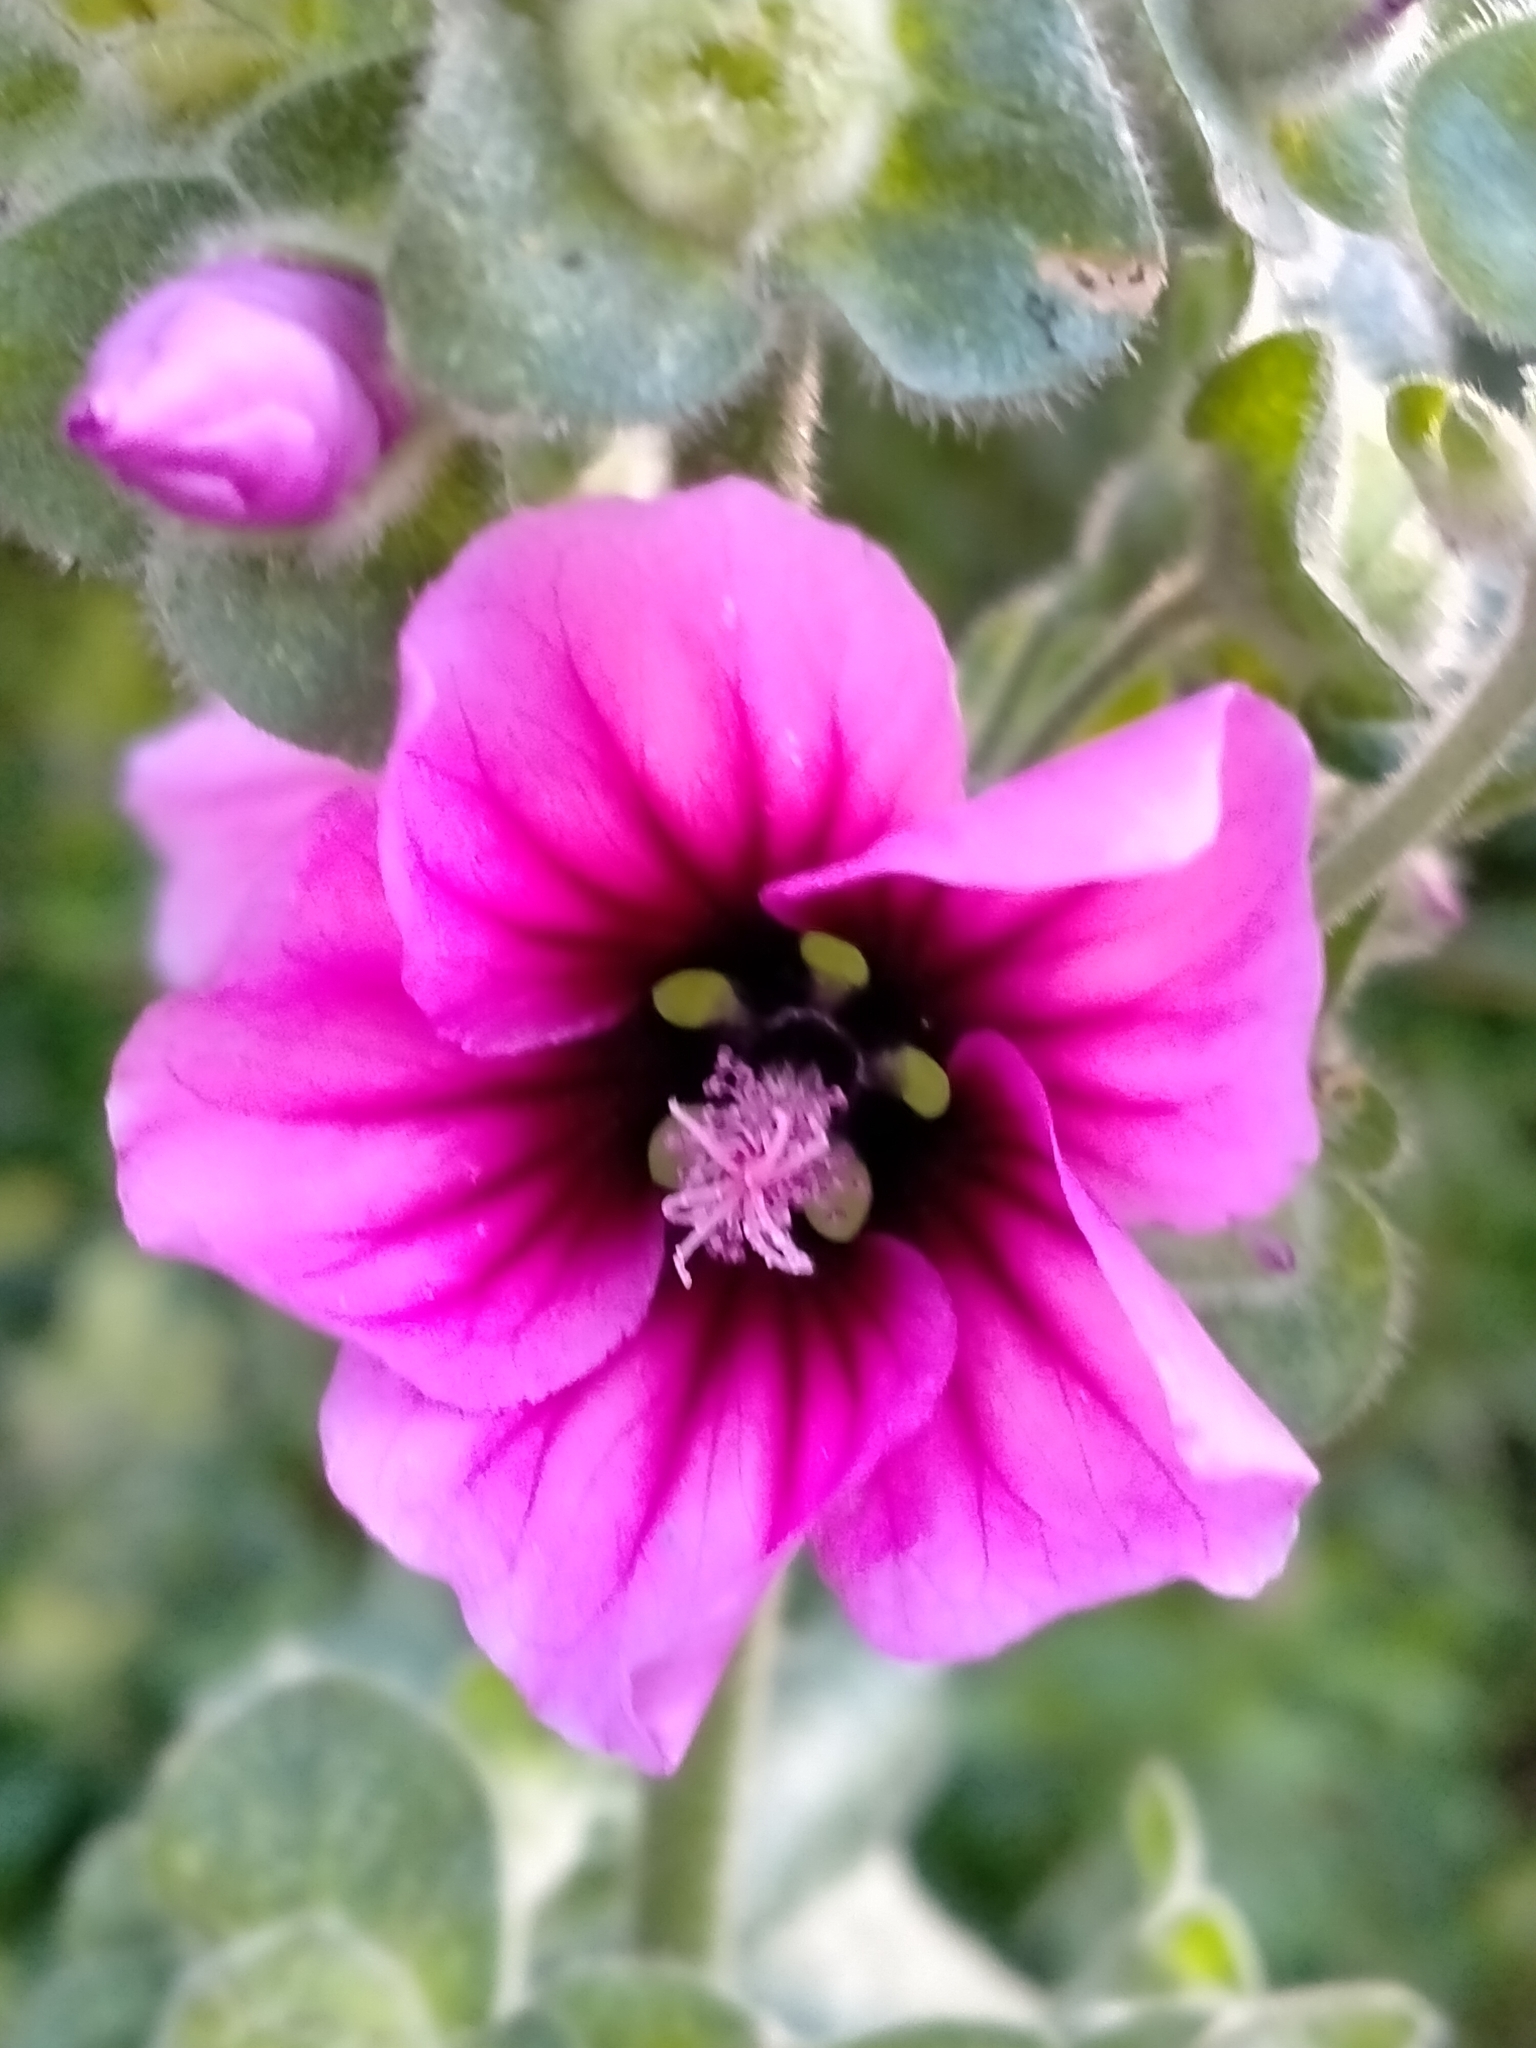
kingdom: Plantae
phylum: Tracheophyta
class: Magnoliopsida
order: Malvales
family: Malvaceae
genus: Malva
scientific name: Malva arborea
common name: Tree mallow
